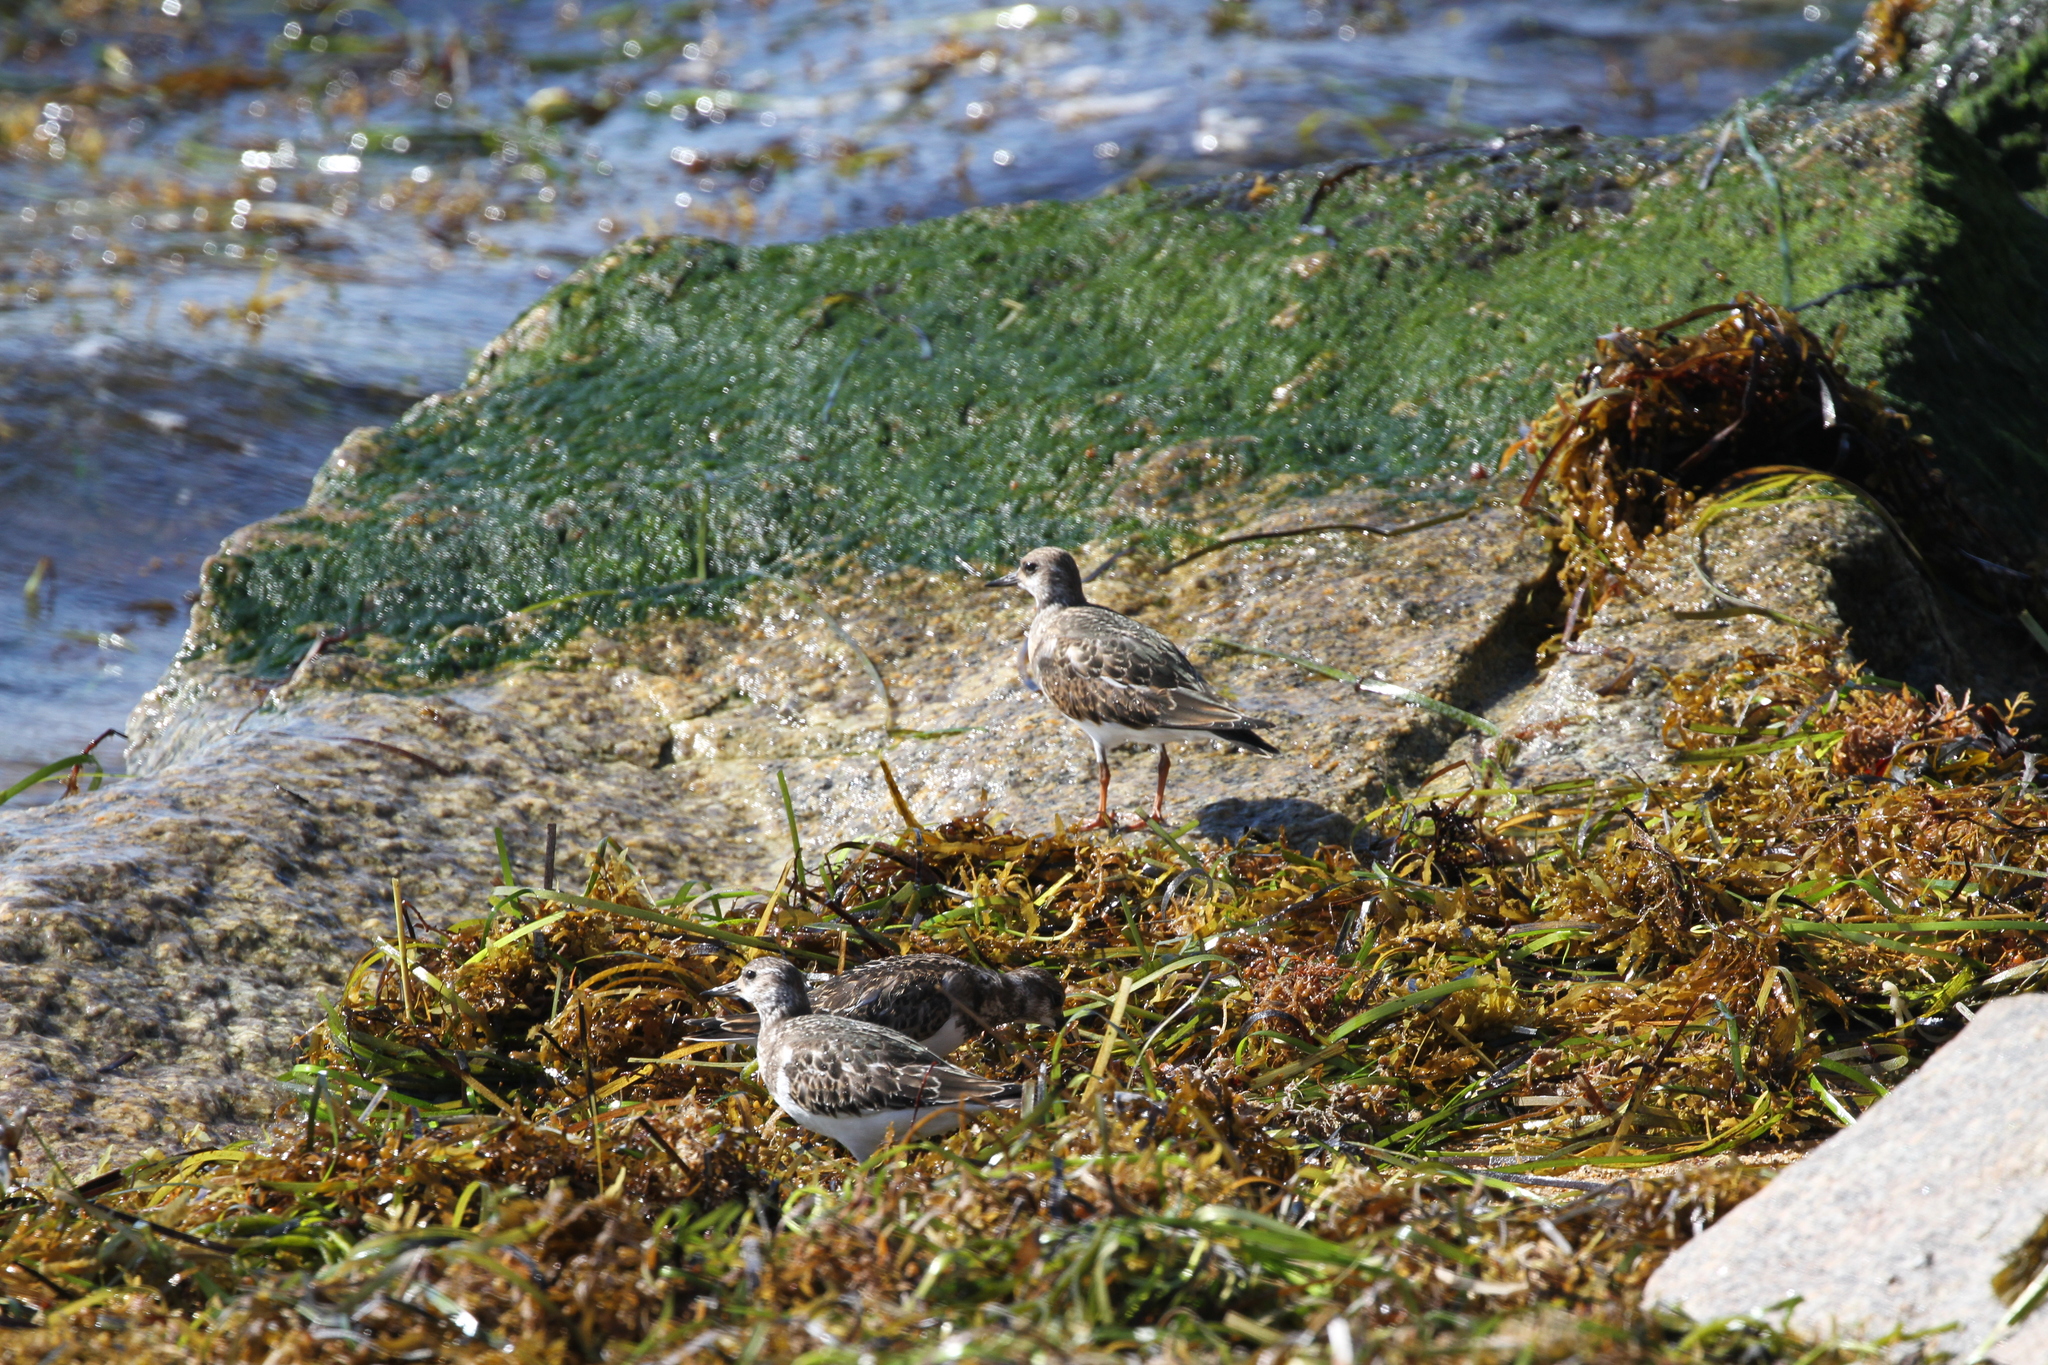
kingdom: Animalia
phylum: Chordata
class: Aves
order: Charadriiformes
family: Scolopacidae
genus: Arenaria
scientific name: Arenaria interpres
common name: Ruddy turnstone
